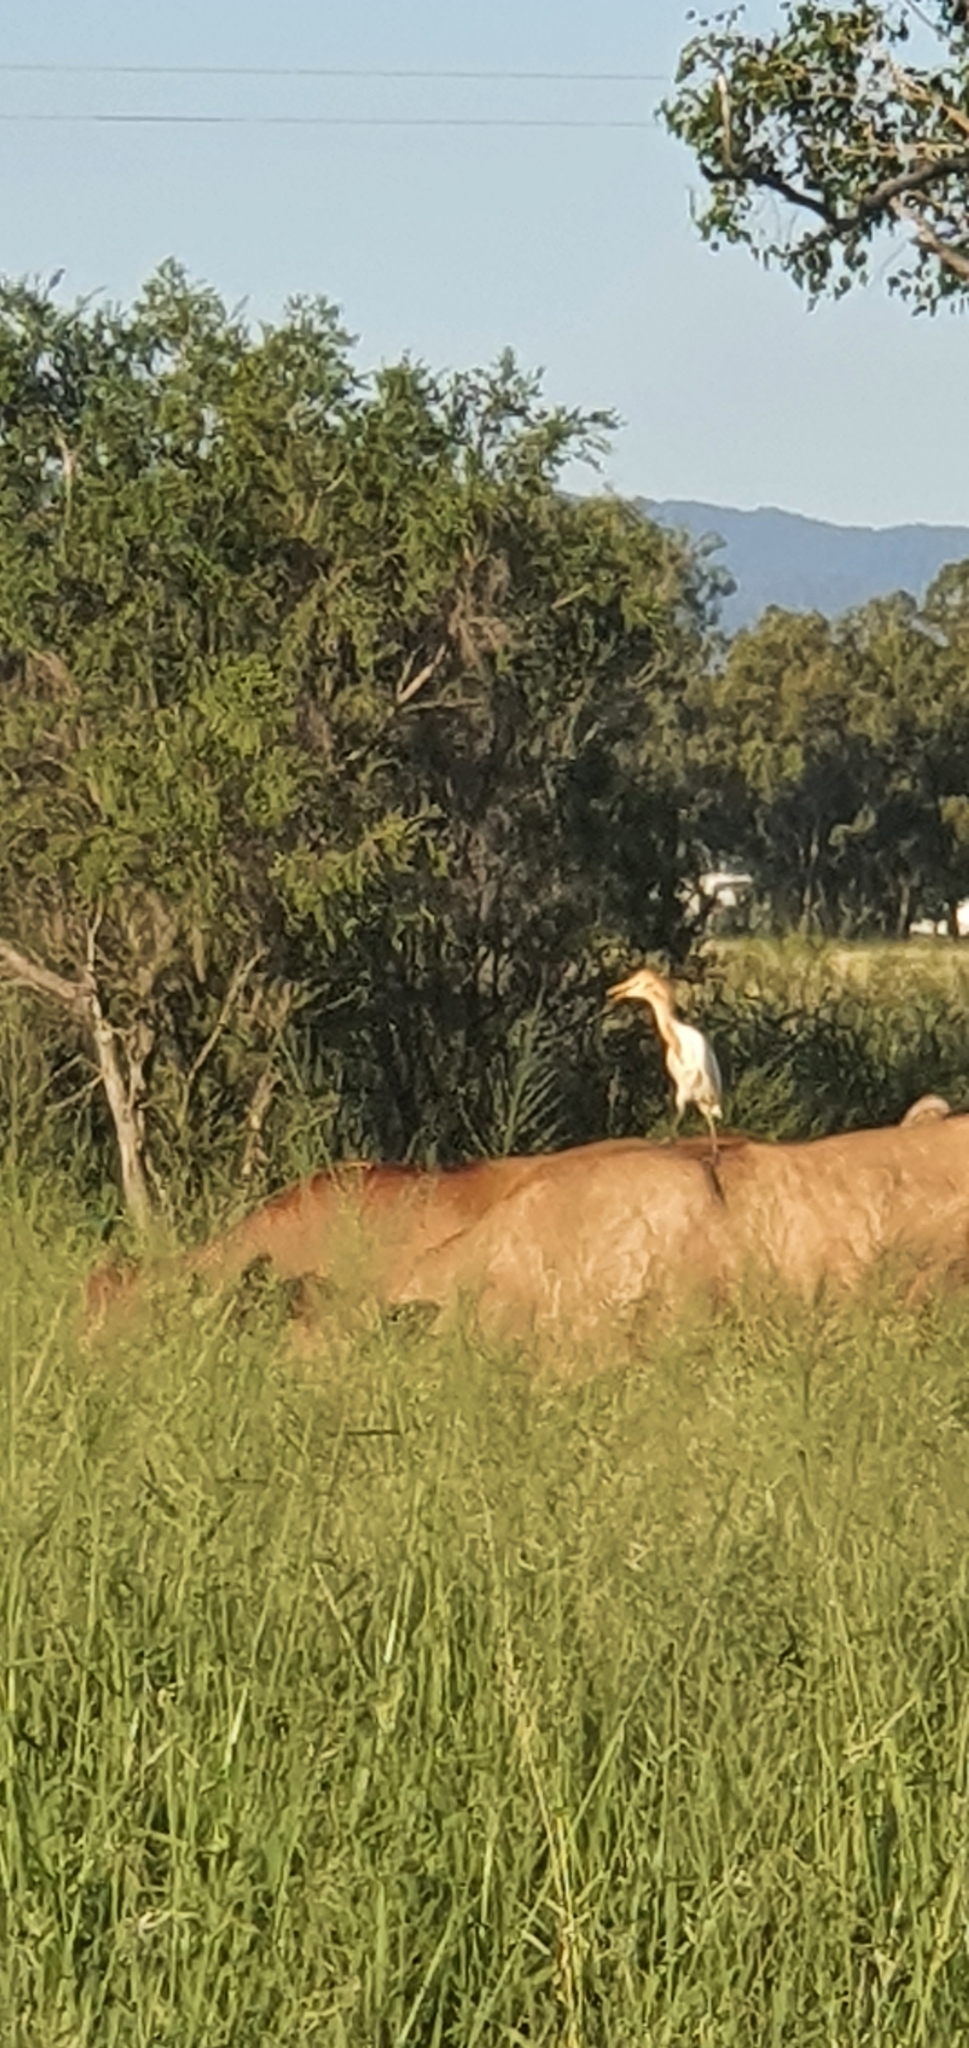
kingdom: Animalia
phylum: Chordata
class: Aves
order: Pelecaniformes
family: Ardeidae
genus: Bubulcus
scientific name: Bubulcus coromandus
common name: Eastern cattle egret
